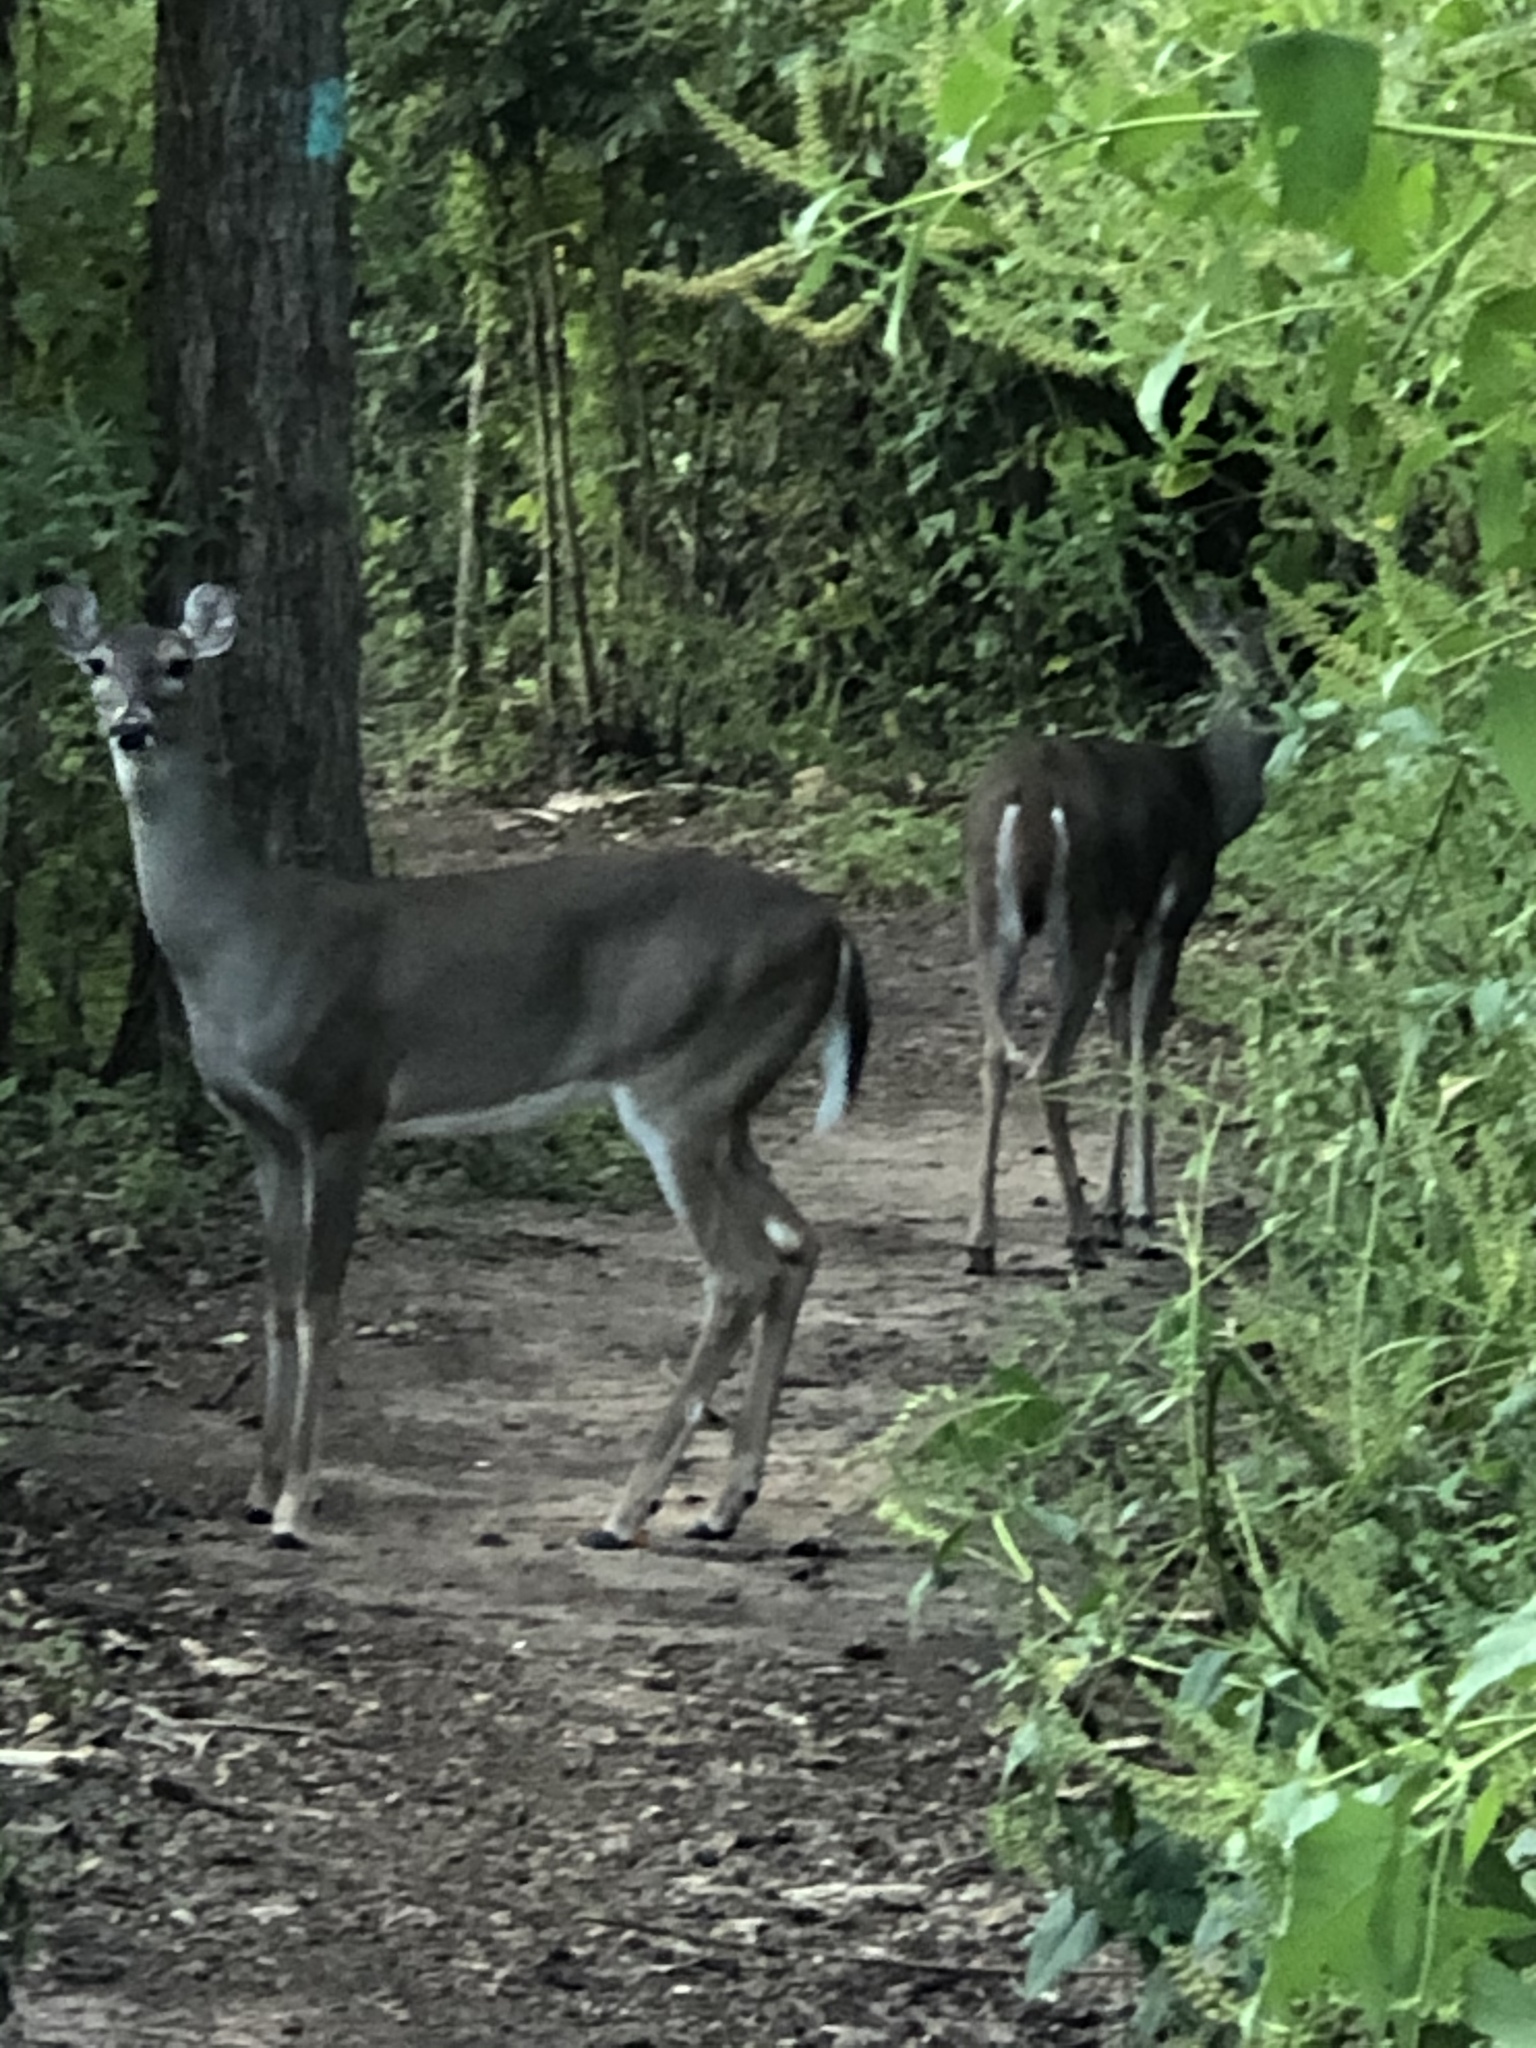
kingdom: Animalia
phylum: Chordata
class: Mammalia
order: Artiodactyla
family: Cervidae
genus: Odocoileus
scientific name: Odocoileus virginianus
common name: White-tailed deer
